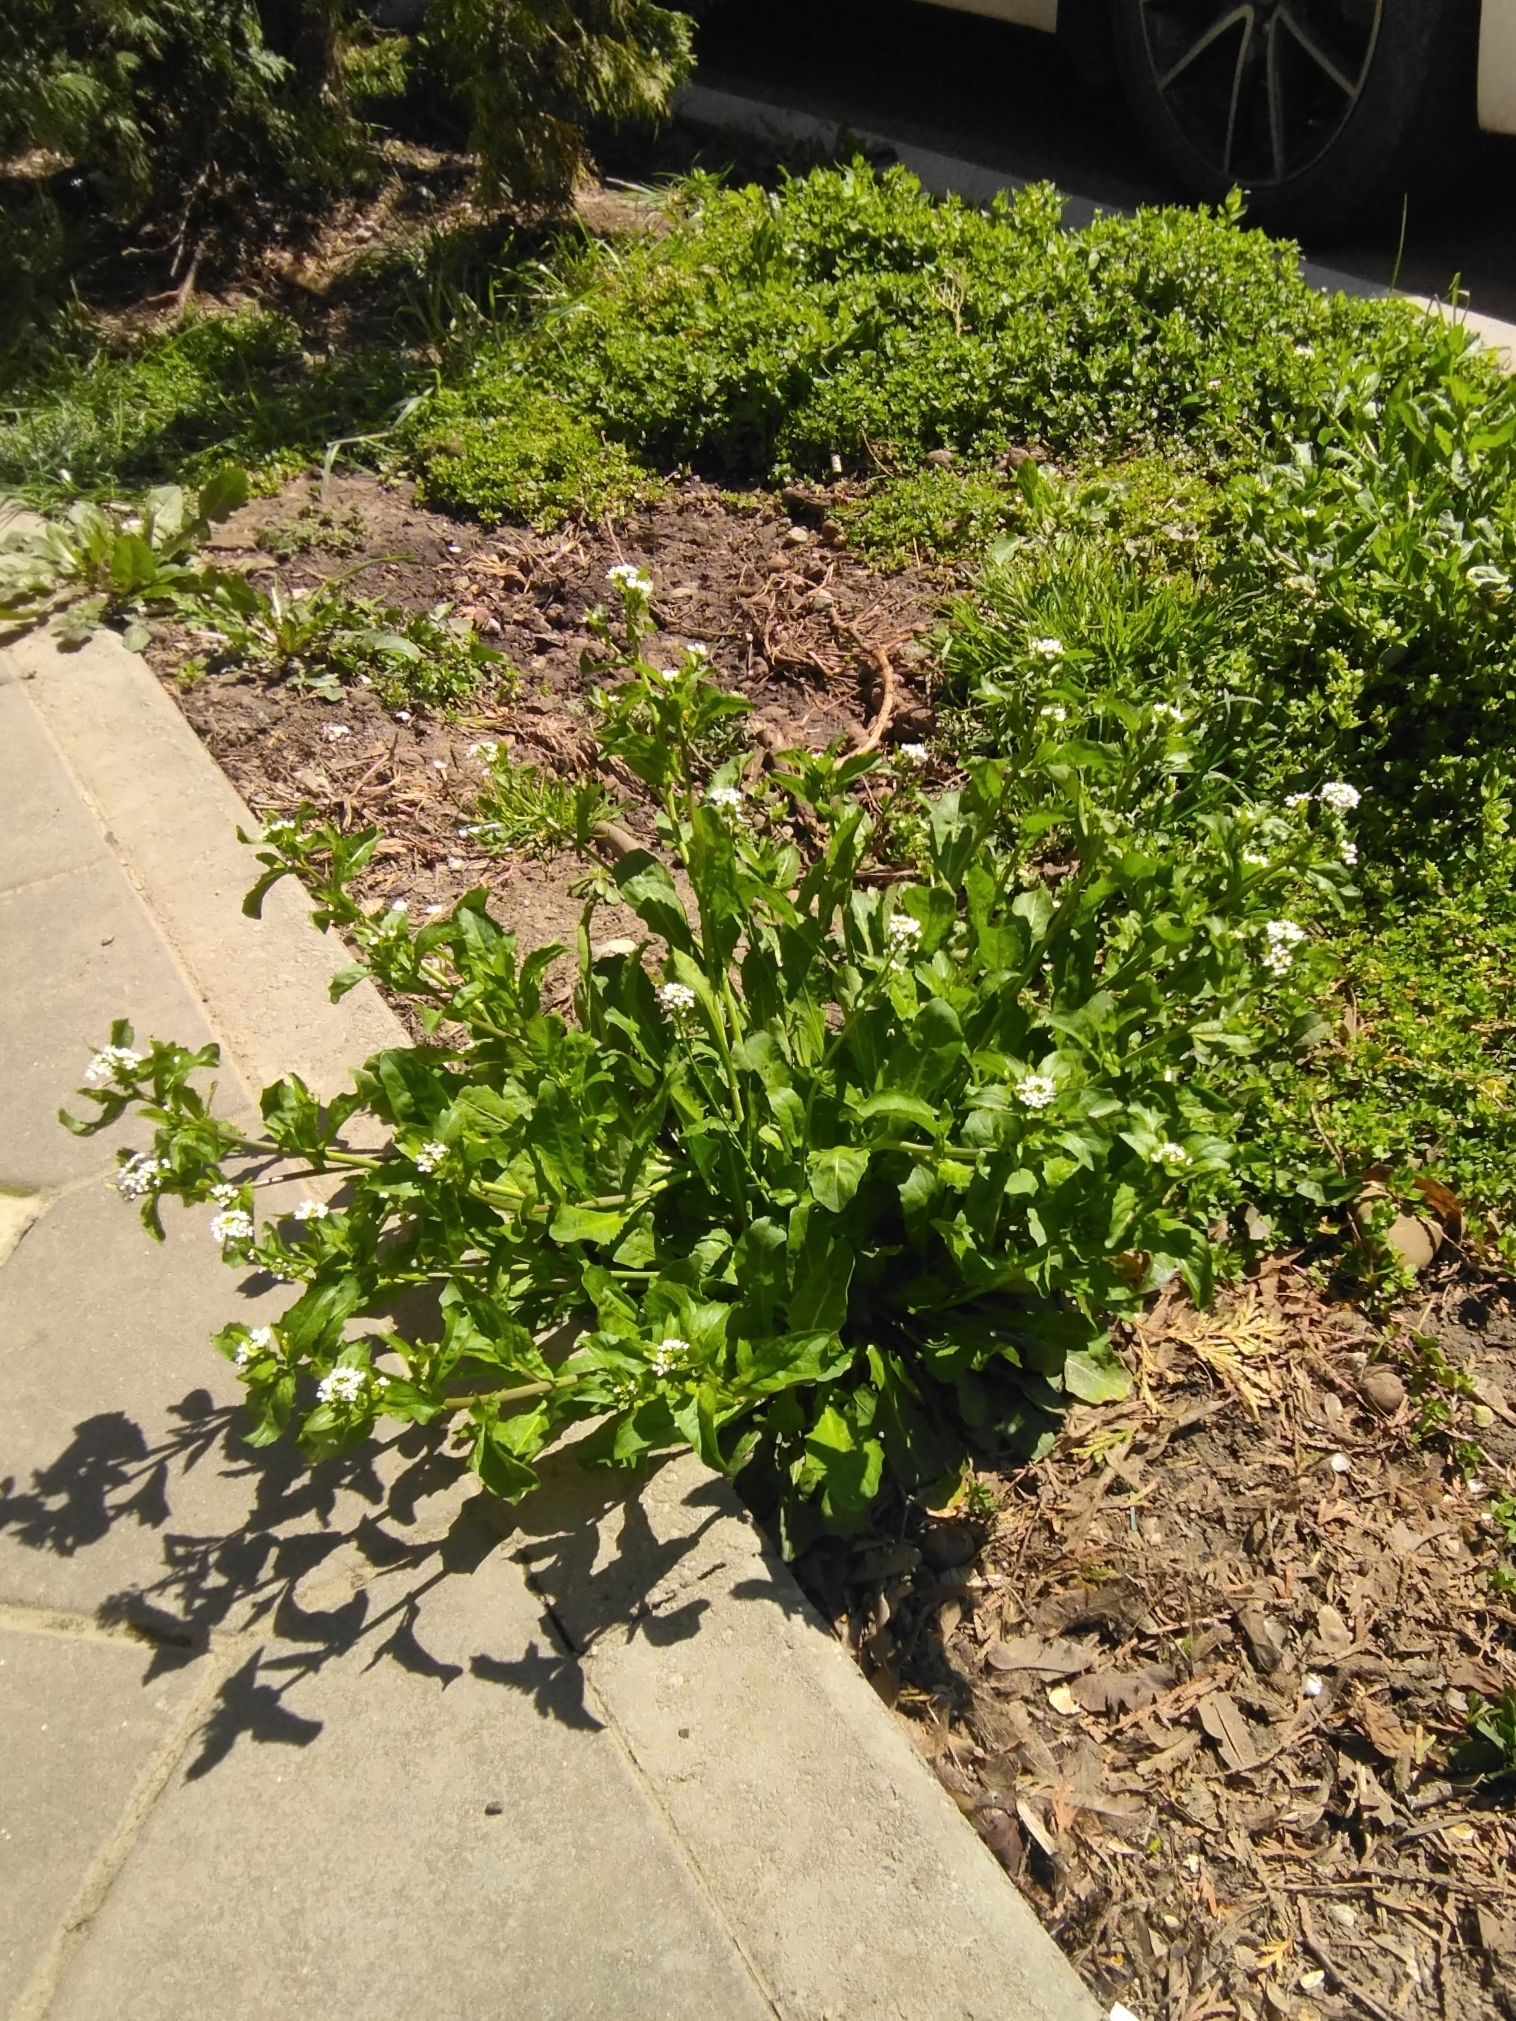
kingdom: Plantae
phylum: Tracheophyta
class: Magnoliopsida
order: Brassicales
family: Brassicaceae
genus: Calepina
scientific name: Calepina irregularis
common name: White ballmustard
